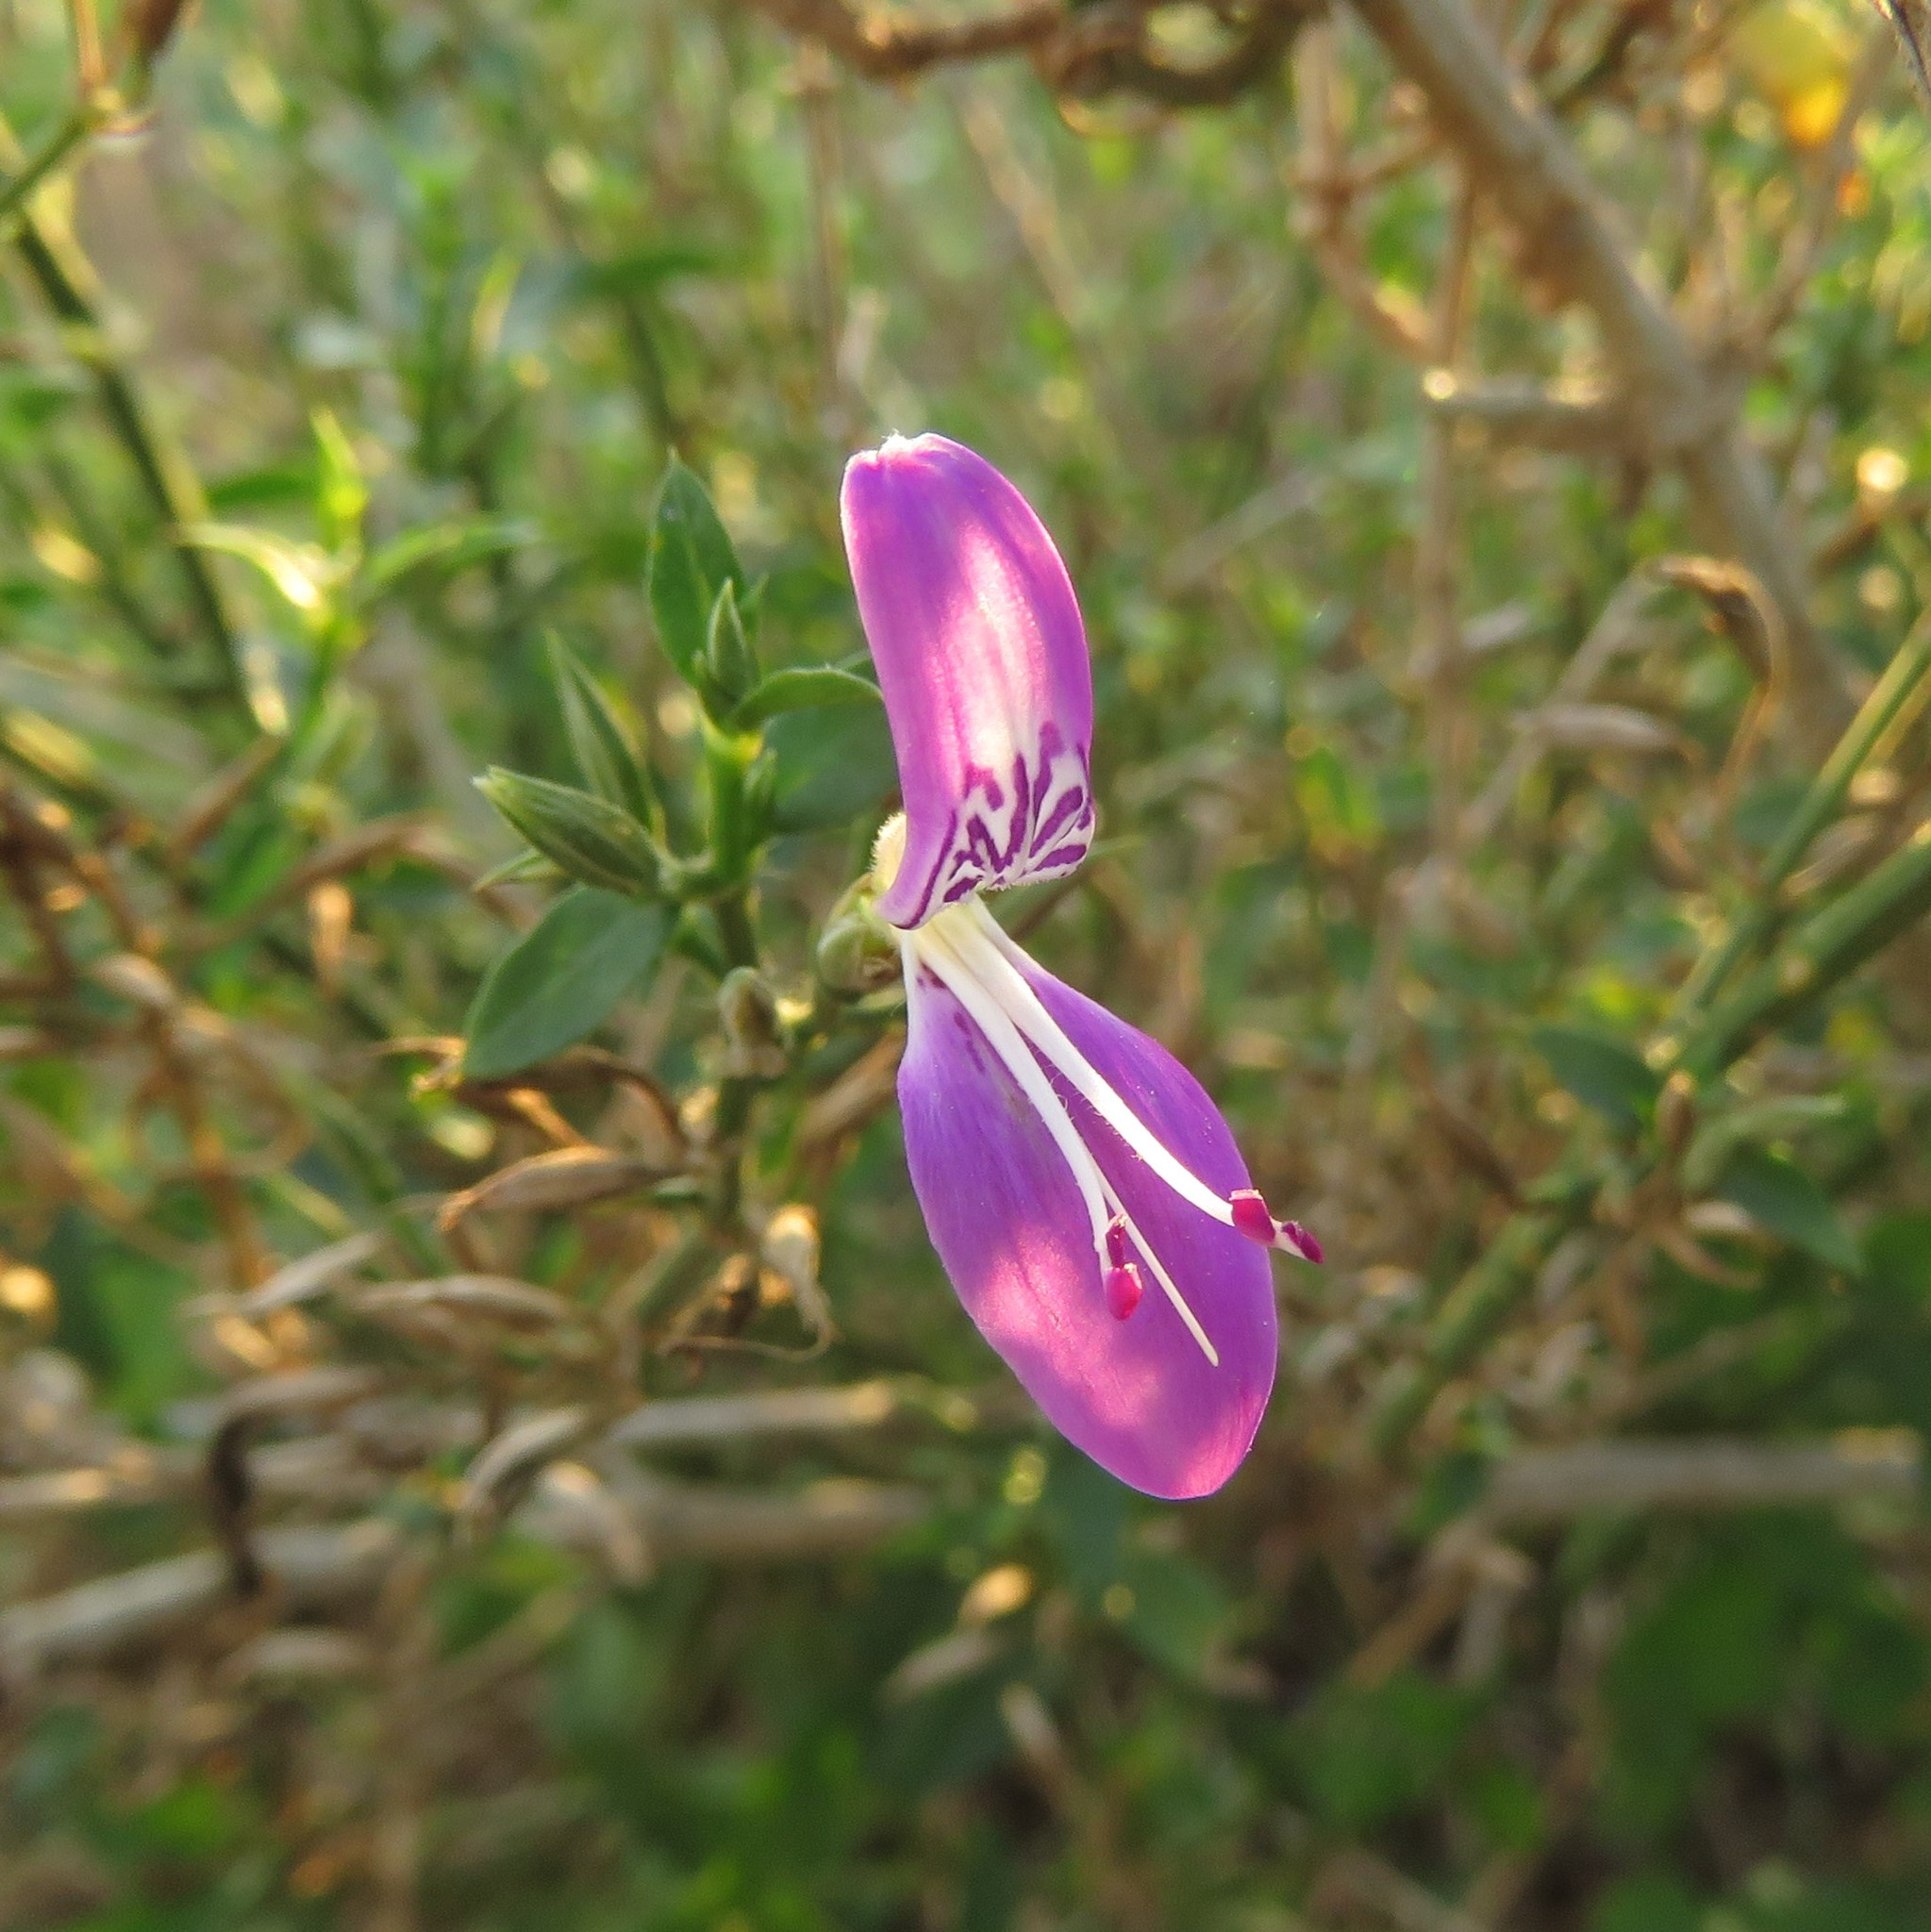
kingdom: Plantae
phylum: Tracheophyta
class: Magnoliopsida
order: Lamiales
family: Acanthaceae
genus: Dicliptera
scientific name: Dicliptera cernua
